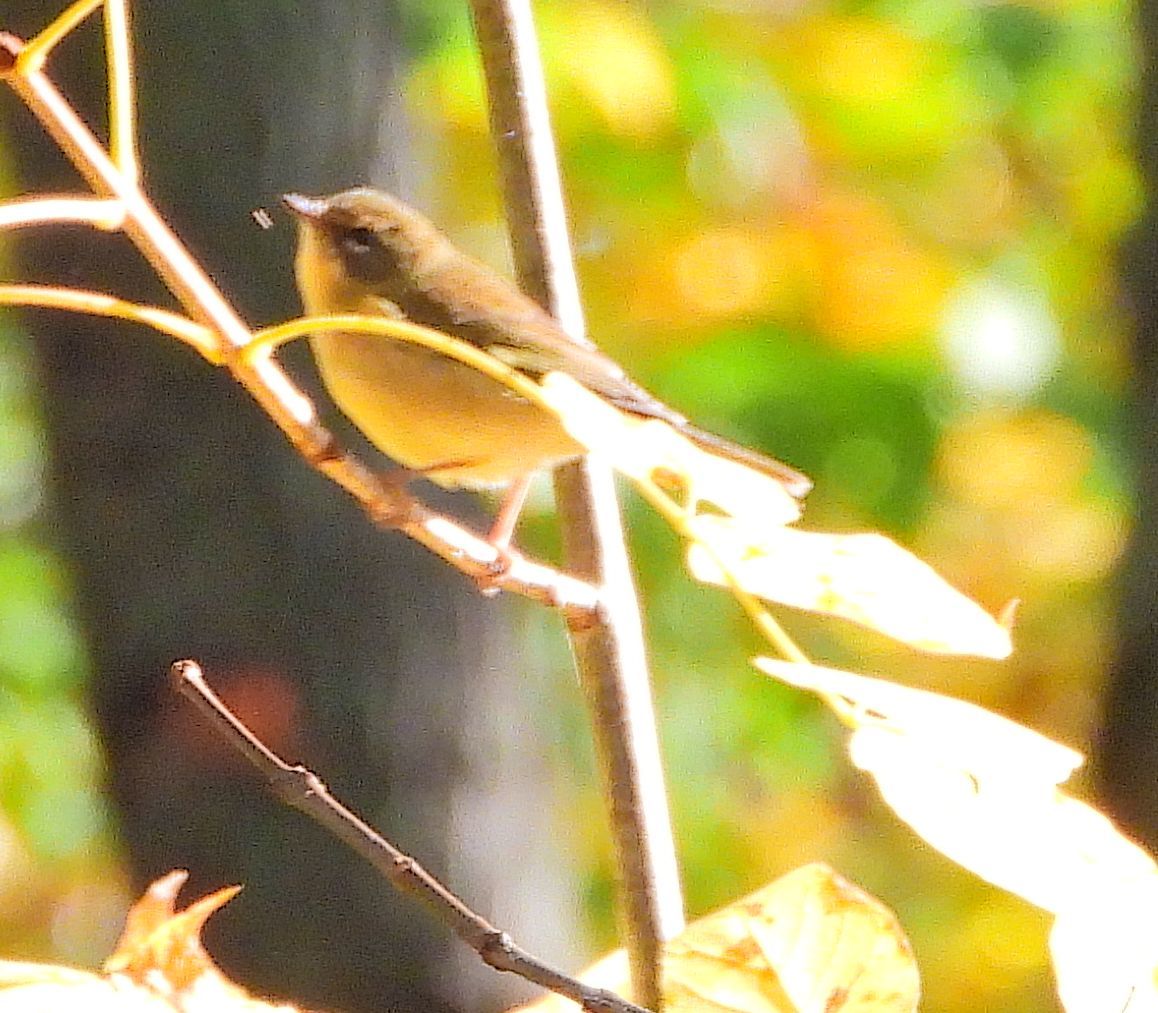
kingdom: Animalia
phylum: Chordata
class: Aves
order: Passeriformes
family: Parulidae
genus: Setophaga
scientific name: Setophaga caerulescens
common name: Black-throated blue warbler
